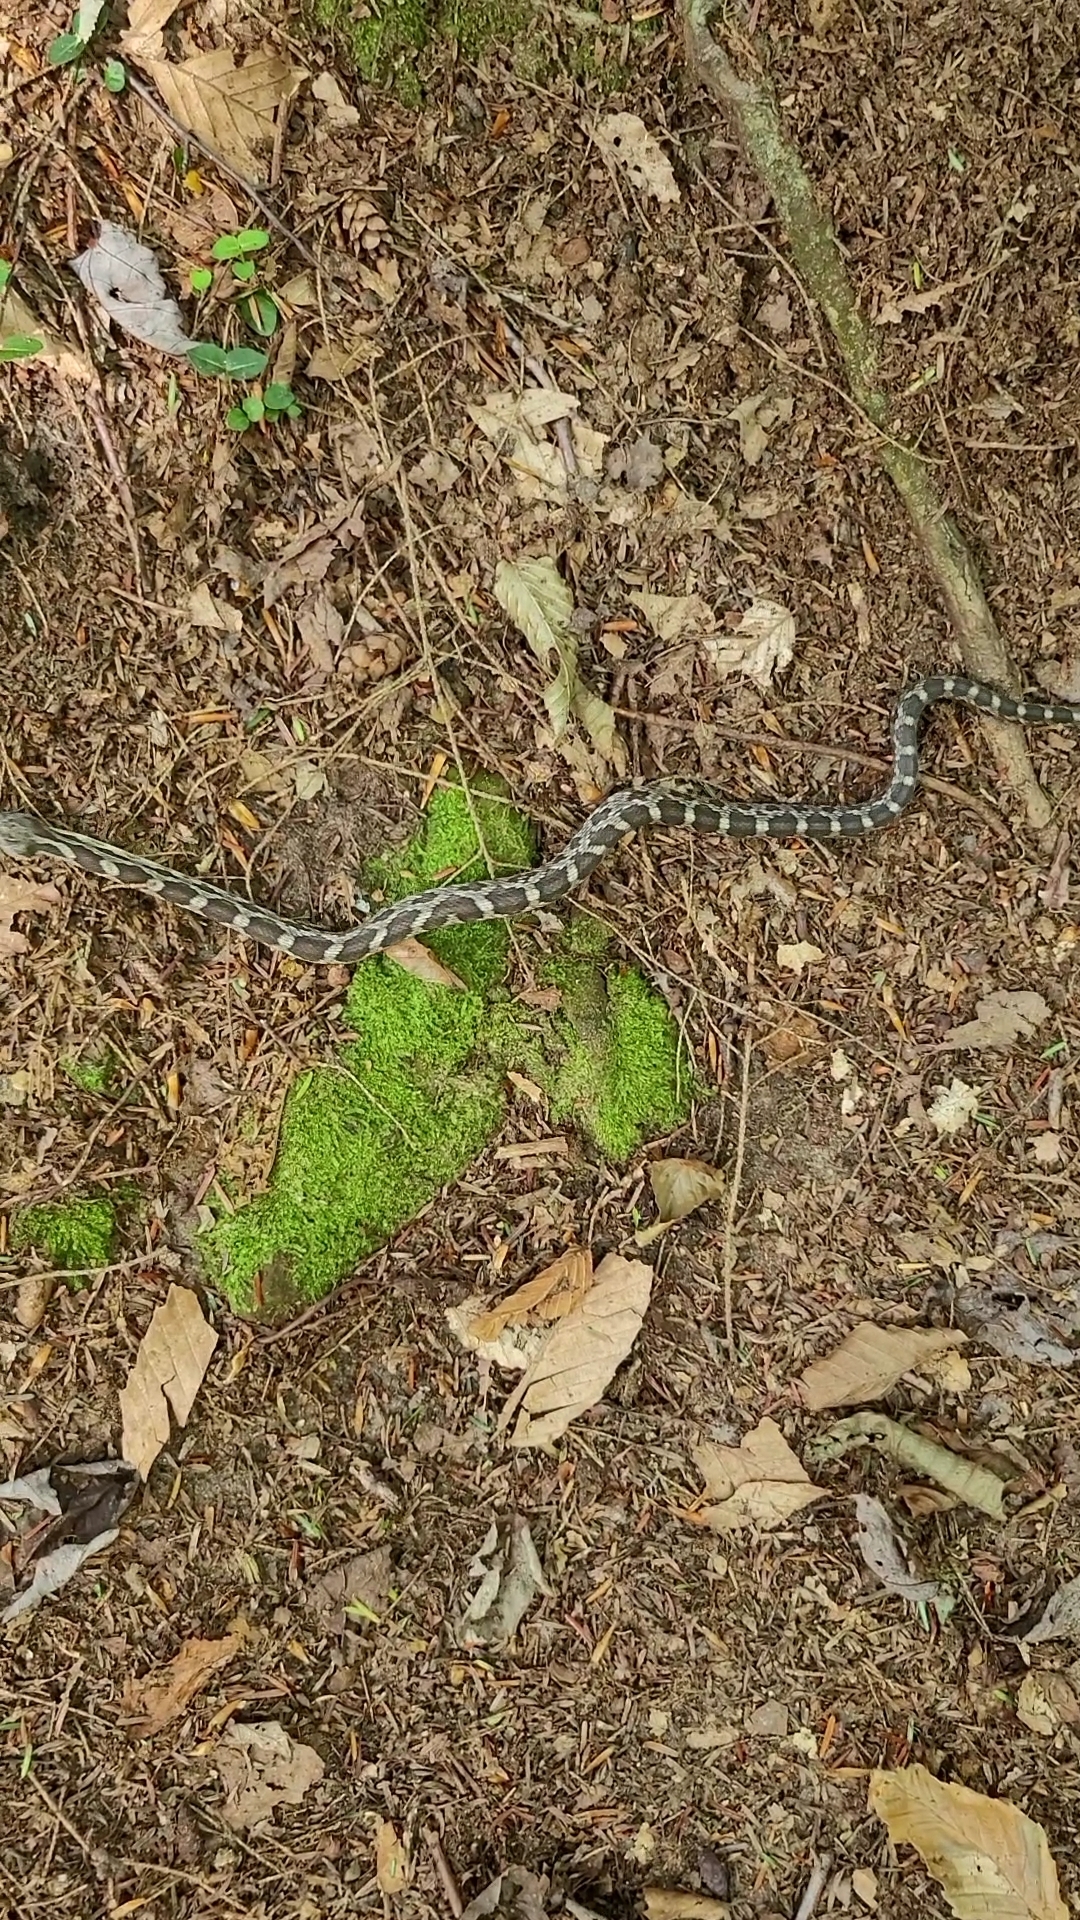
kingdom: Animalia
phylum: Chordata
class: Squamata
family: Colubridae
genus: Pantherophis
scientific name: Pantherophis spiloides
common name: Gray rat snake
